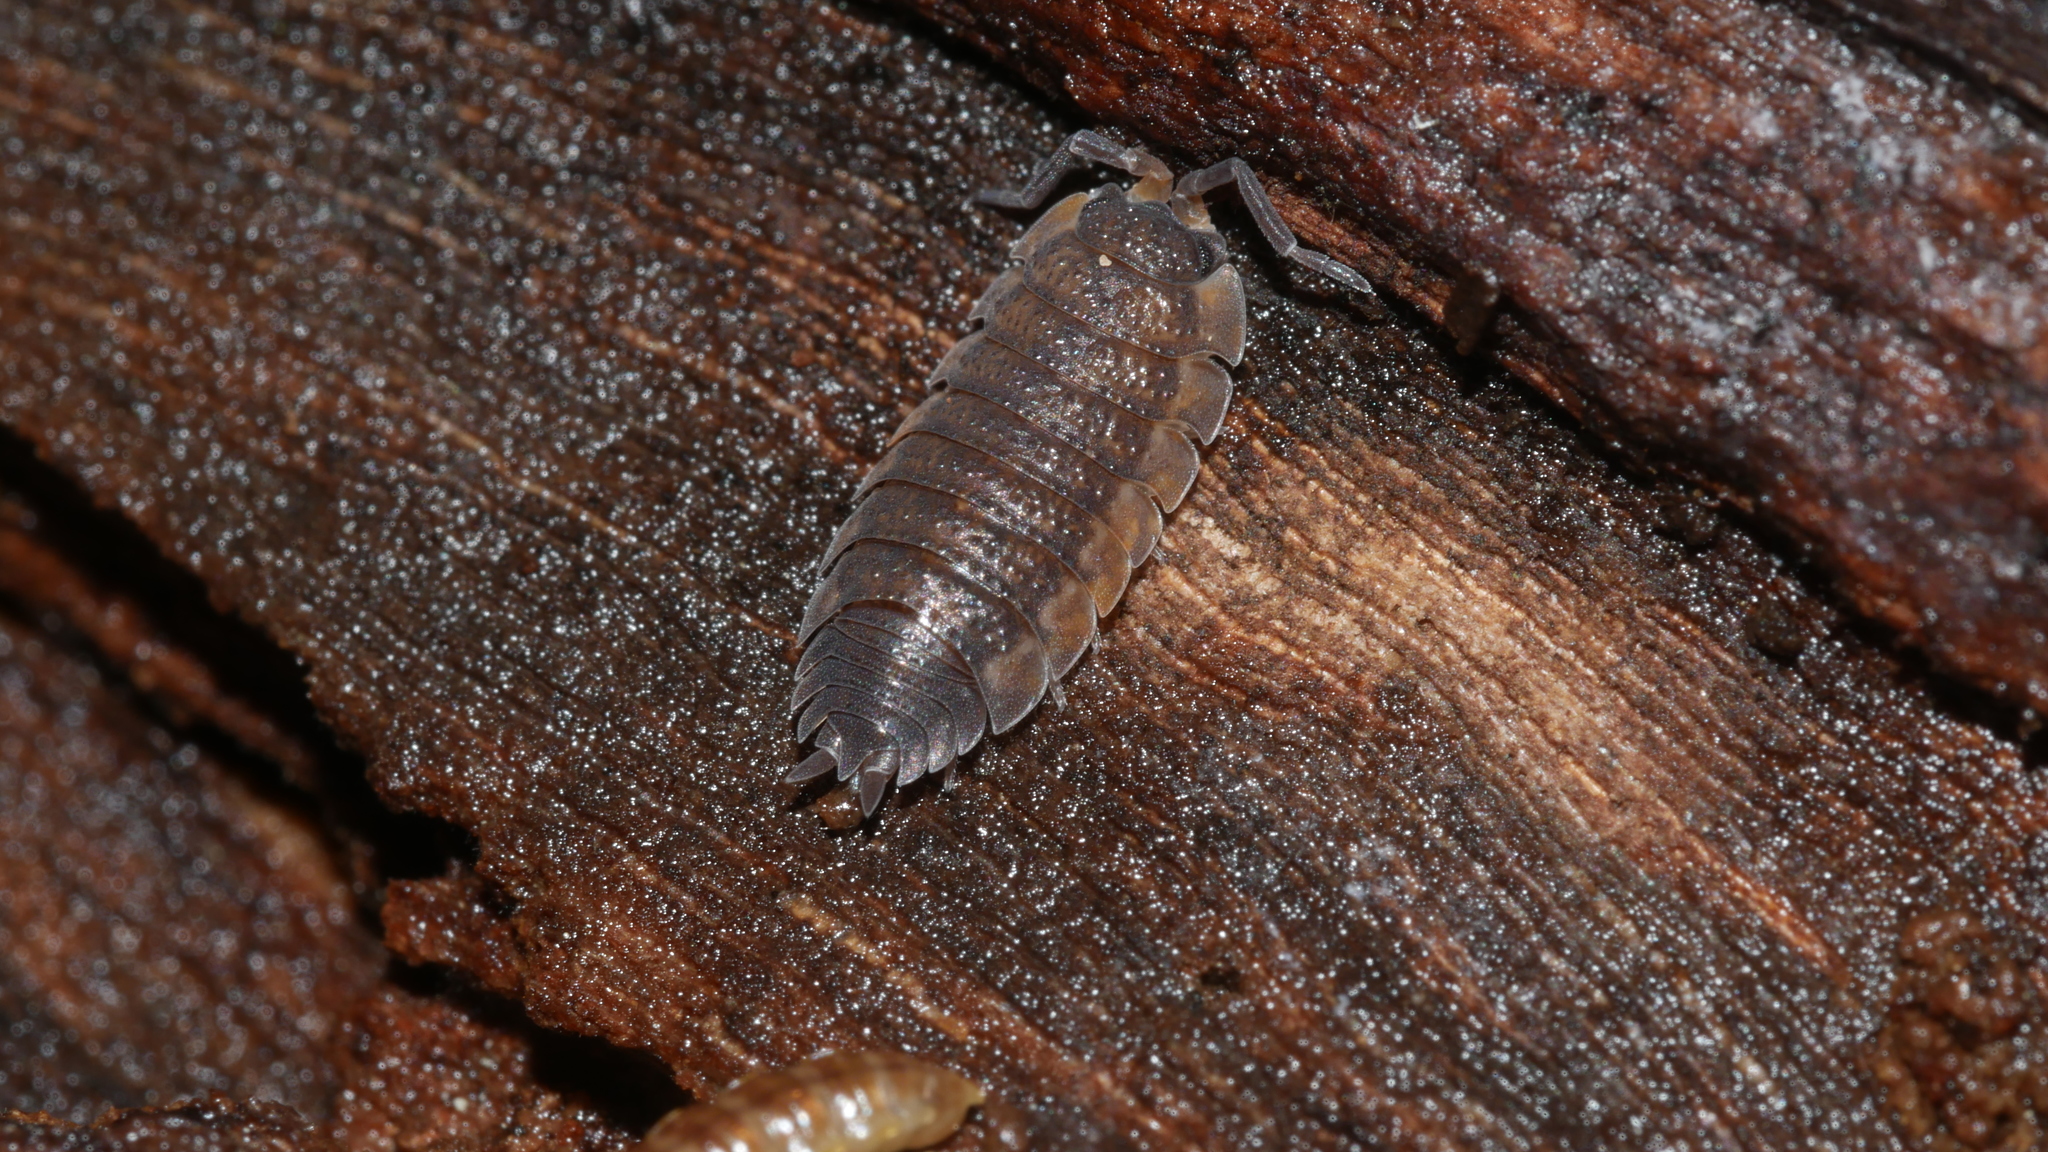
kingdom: Animalia
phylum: Arthropoda
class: Malacostraca
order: Isopoda
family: Porcellionidae
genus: Porcellio
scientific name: Porcellio scaber
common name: Common rough woodlouse
